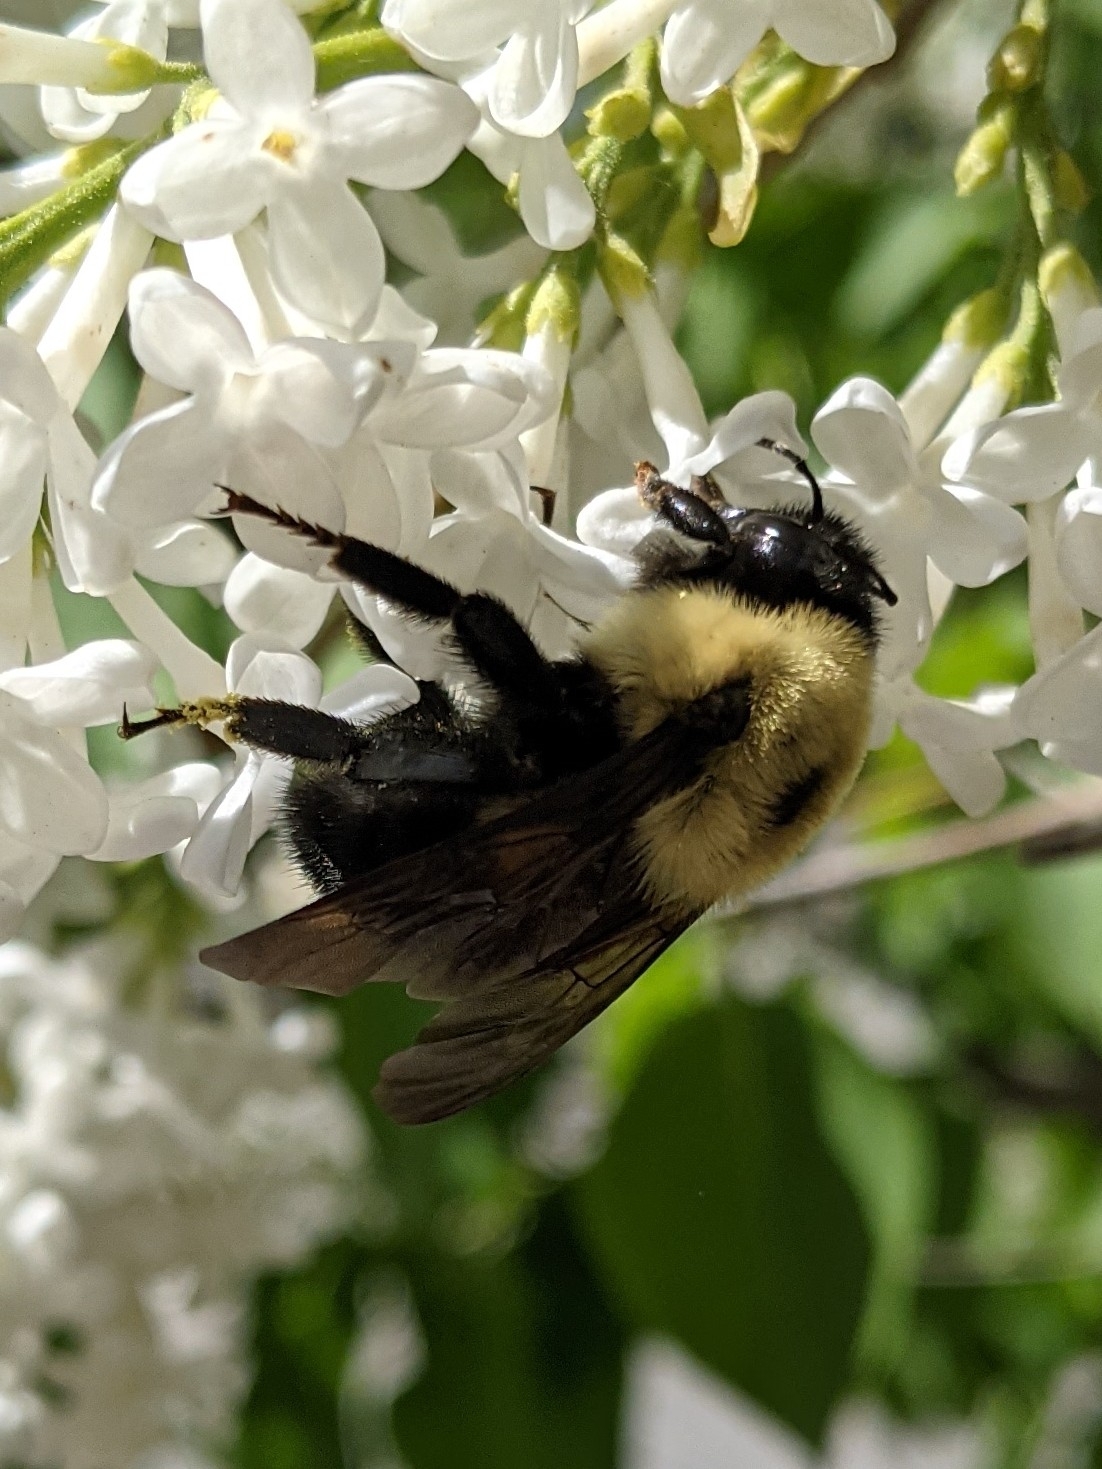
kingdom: Animalia
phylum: Arthropoda
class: Insecta
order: Hymenoptera
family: Apidae
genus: Bombus
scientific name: Bombus griseocollis
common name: Brown-belted bumble bee
